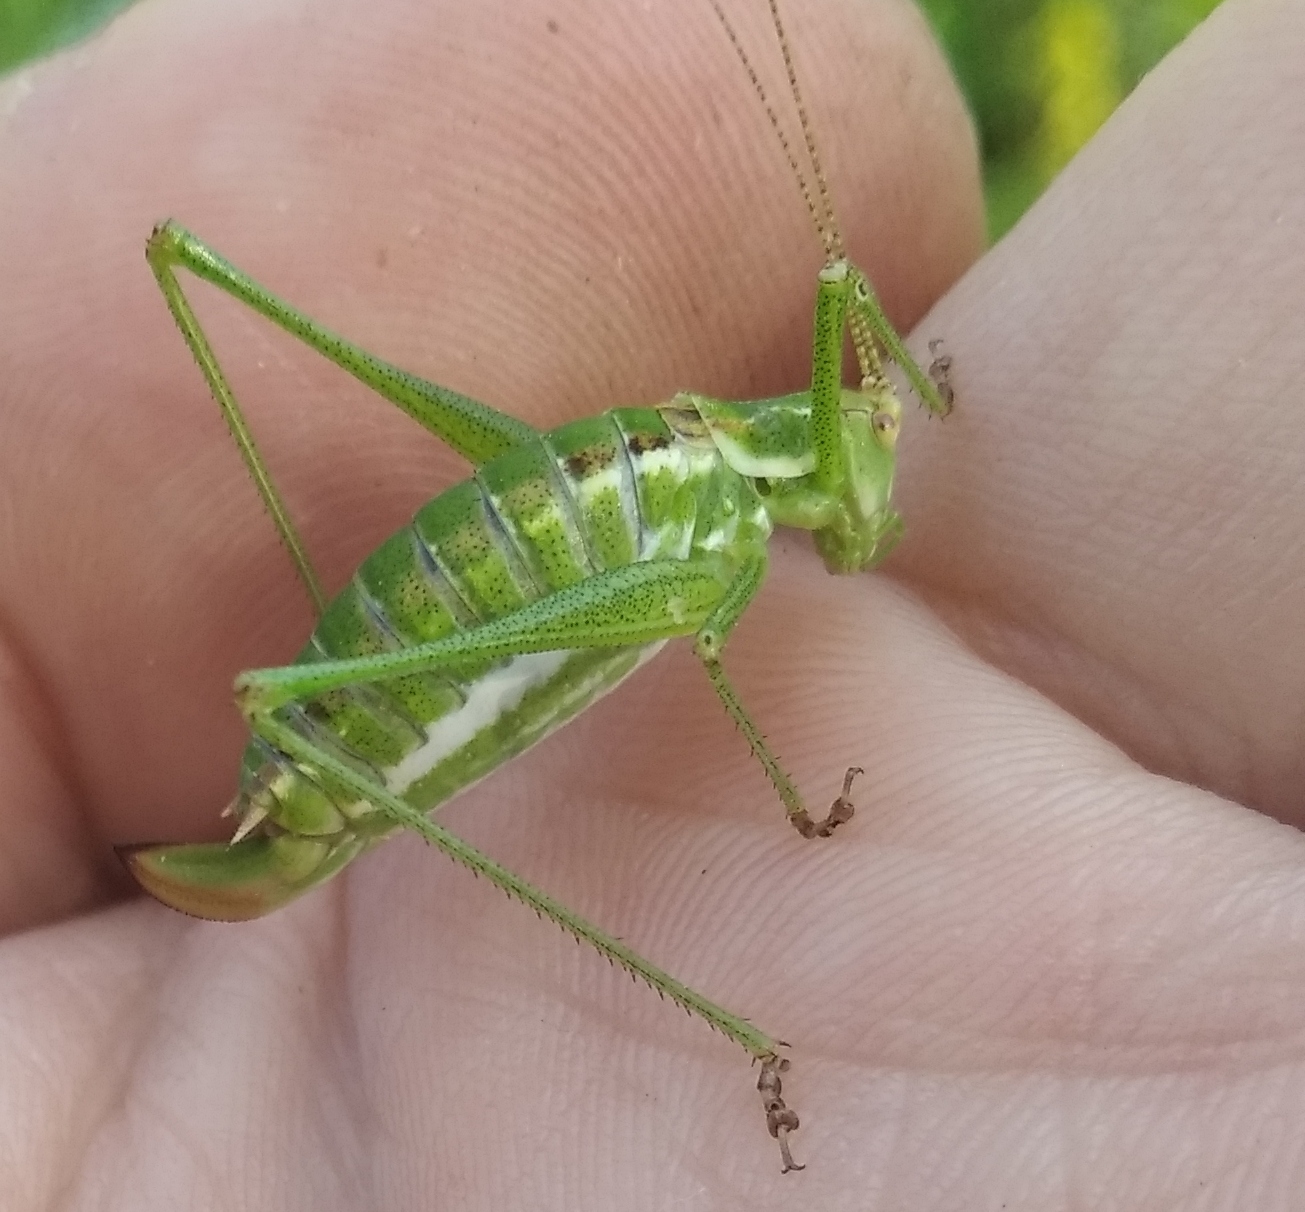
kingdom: Animalia
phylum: Arthropoda
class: Insecta
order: Orthoptera
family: Tettigoniidae
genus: Leptophyes
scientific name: Leptophyes albovittata
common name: Striped bush-cricket
